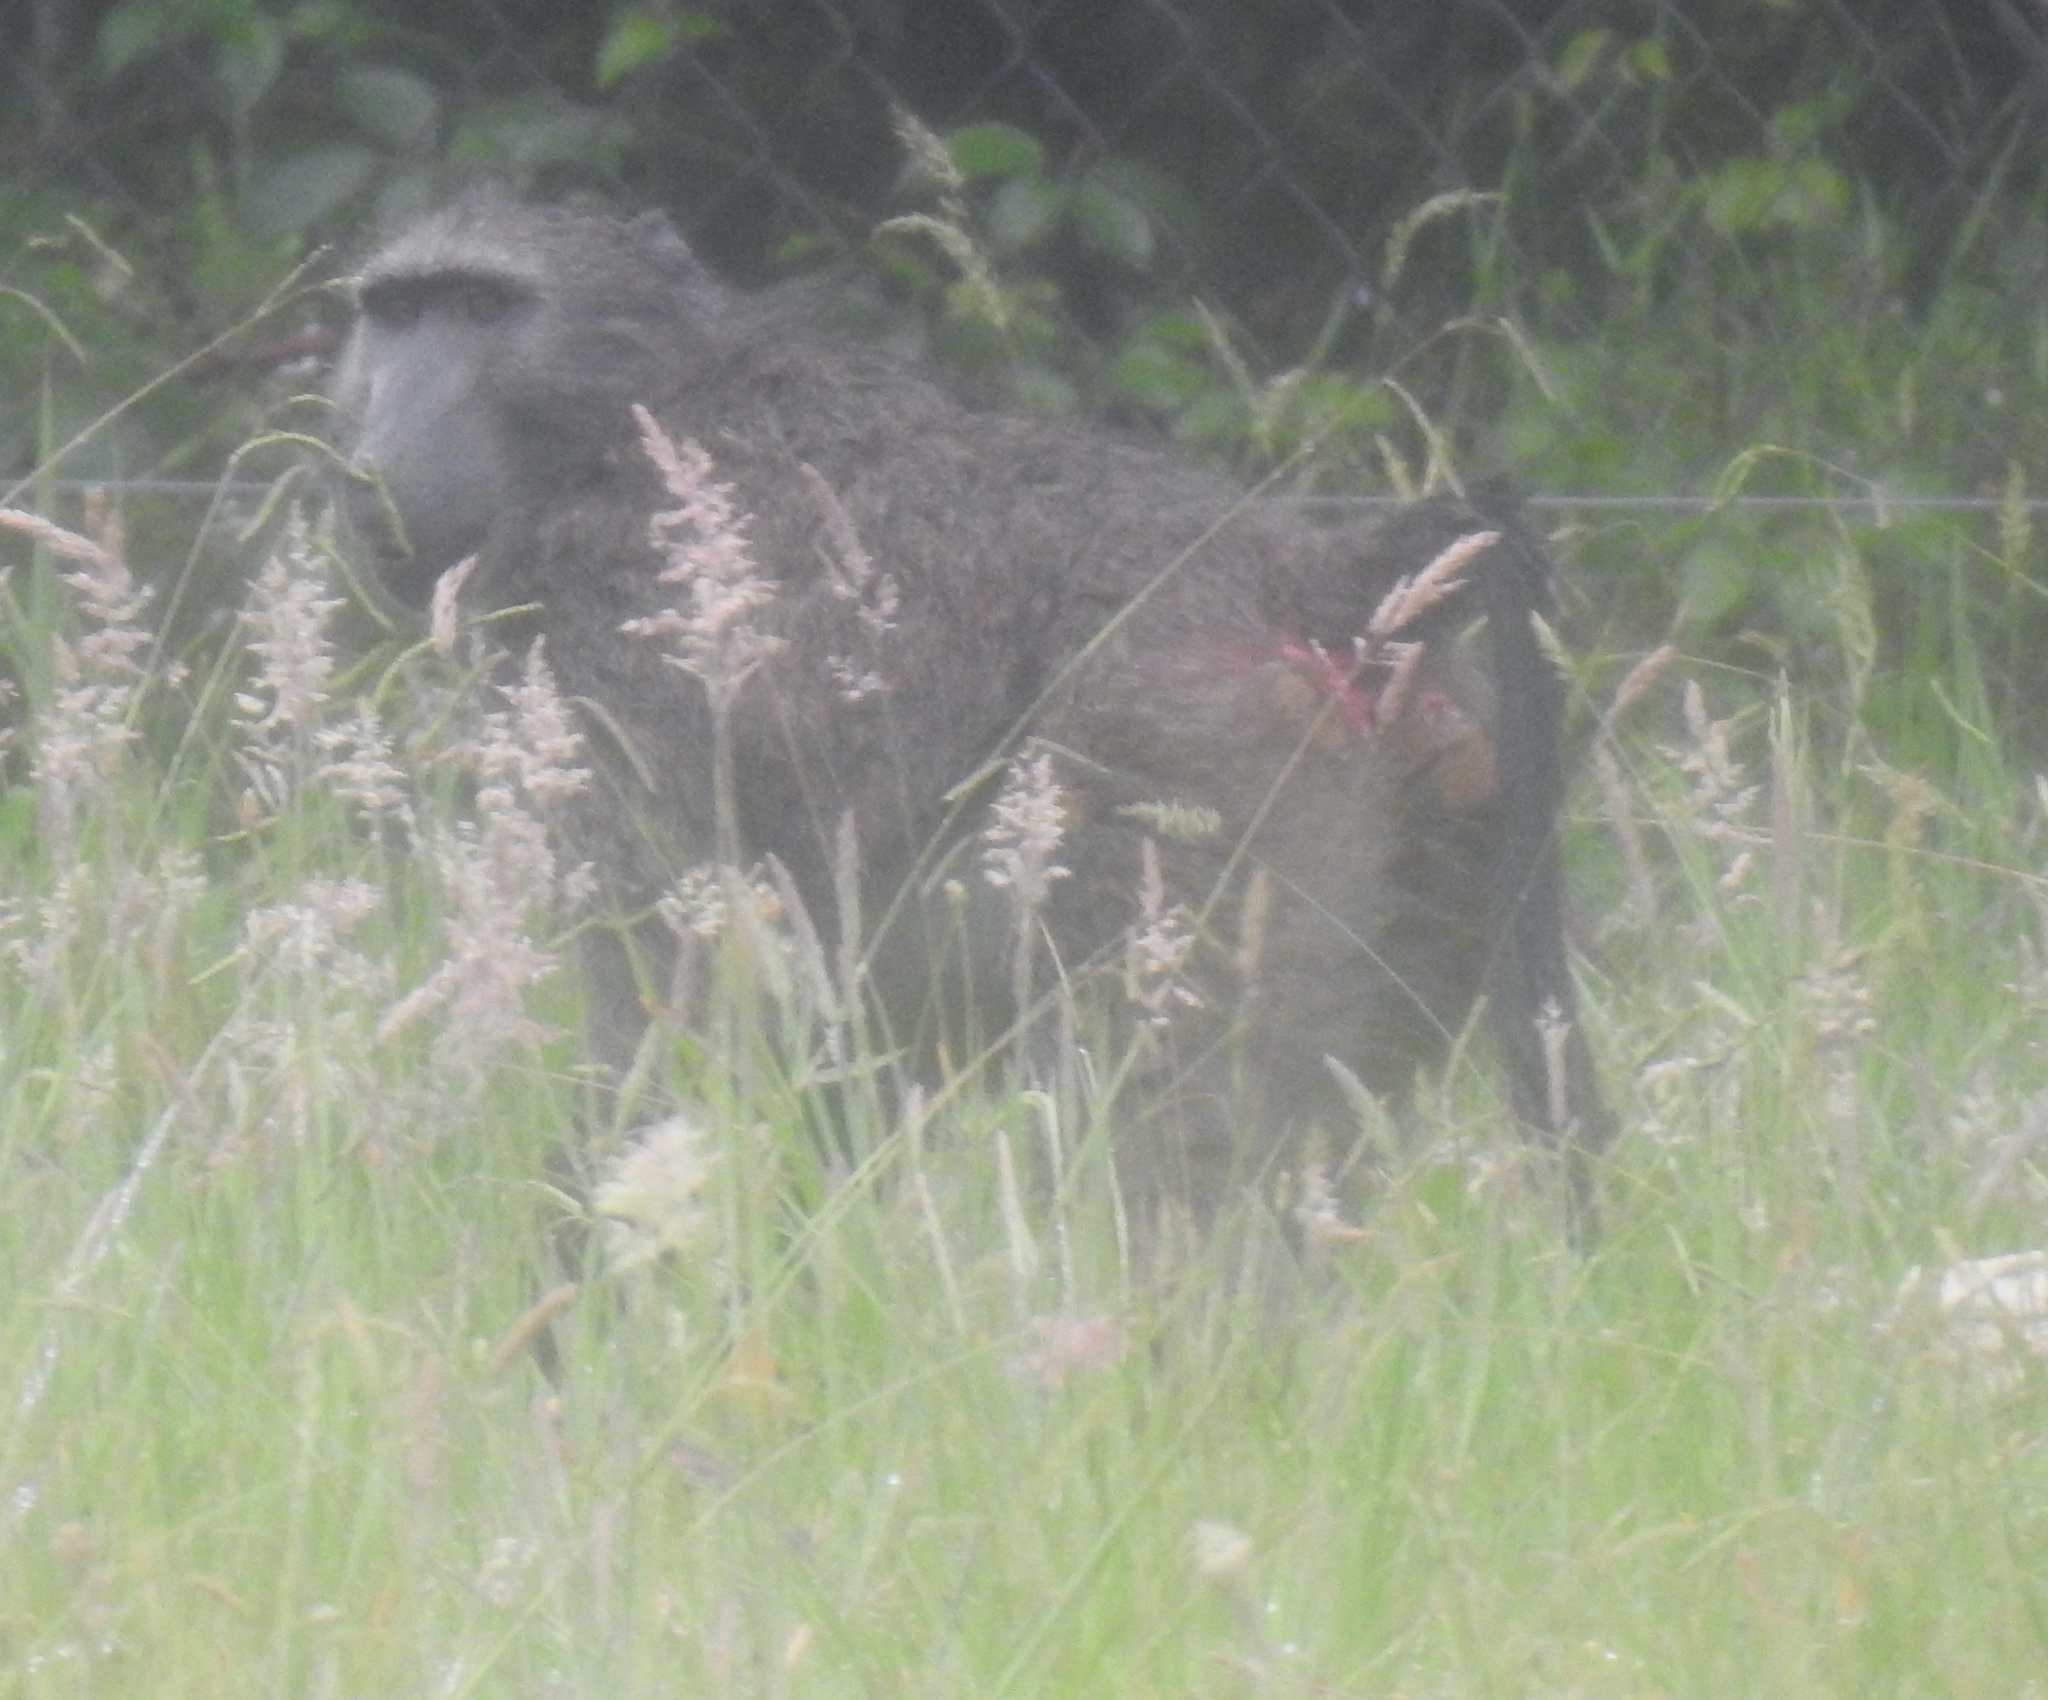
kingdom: Animalia
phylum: Chordata
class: Mammalia
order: Primates
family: Cercopithecidae
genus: Papio
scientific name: Papio ursinus
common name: Chacma baboon
